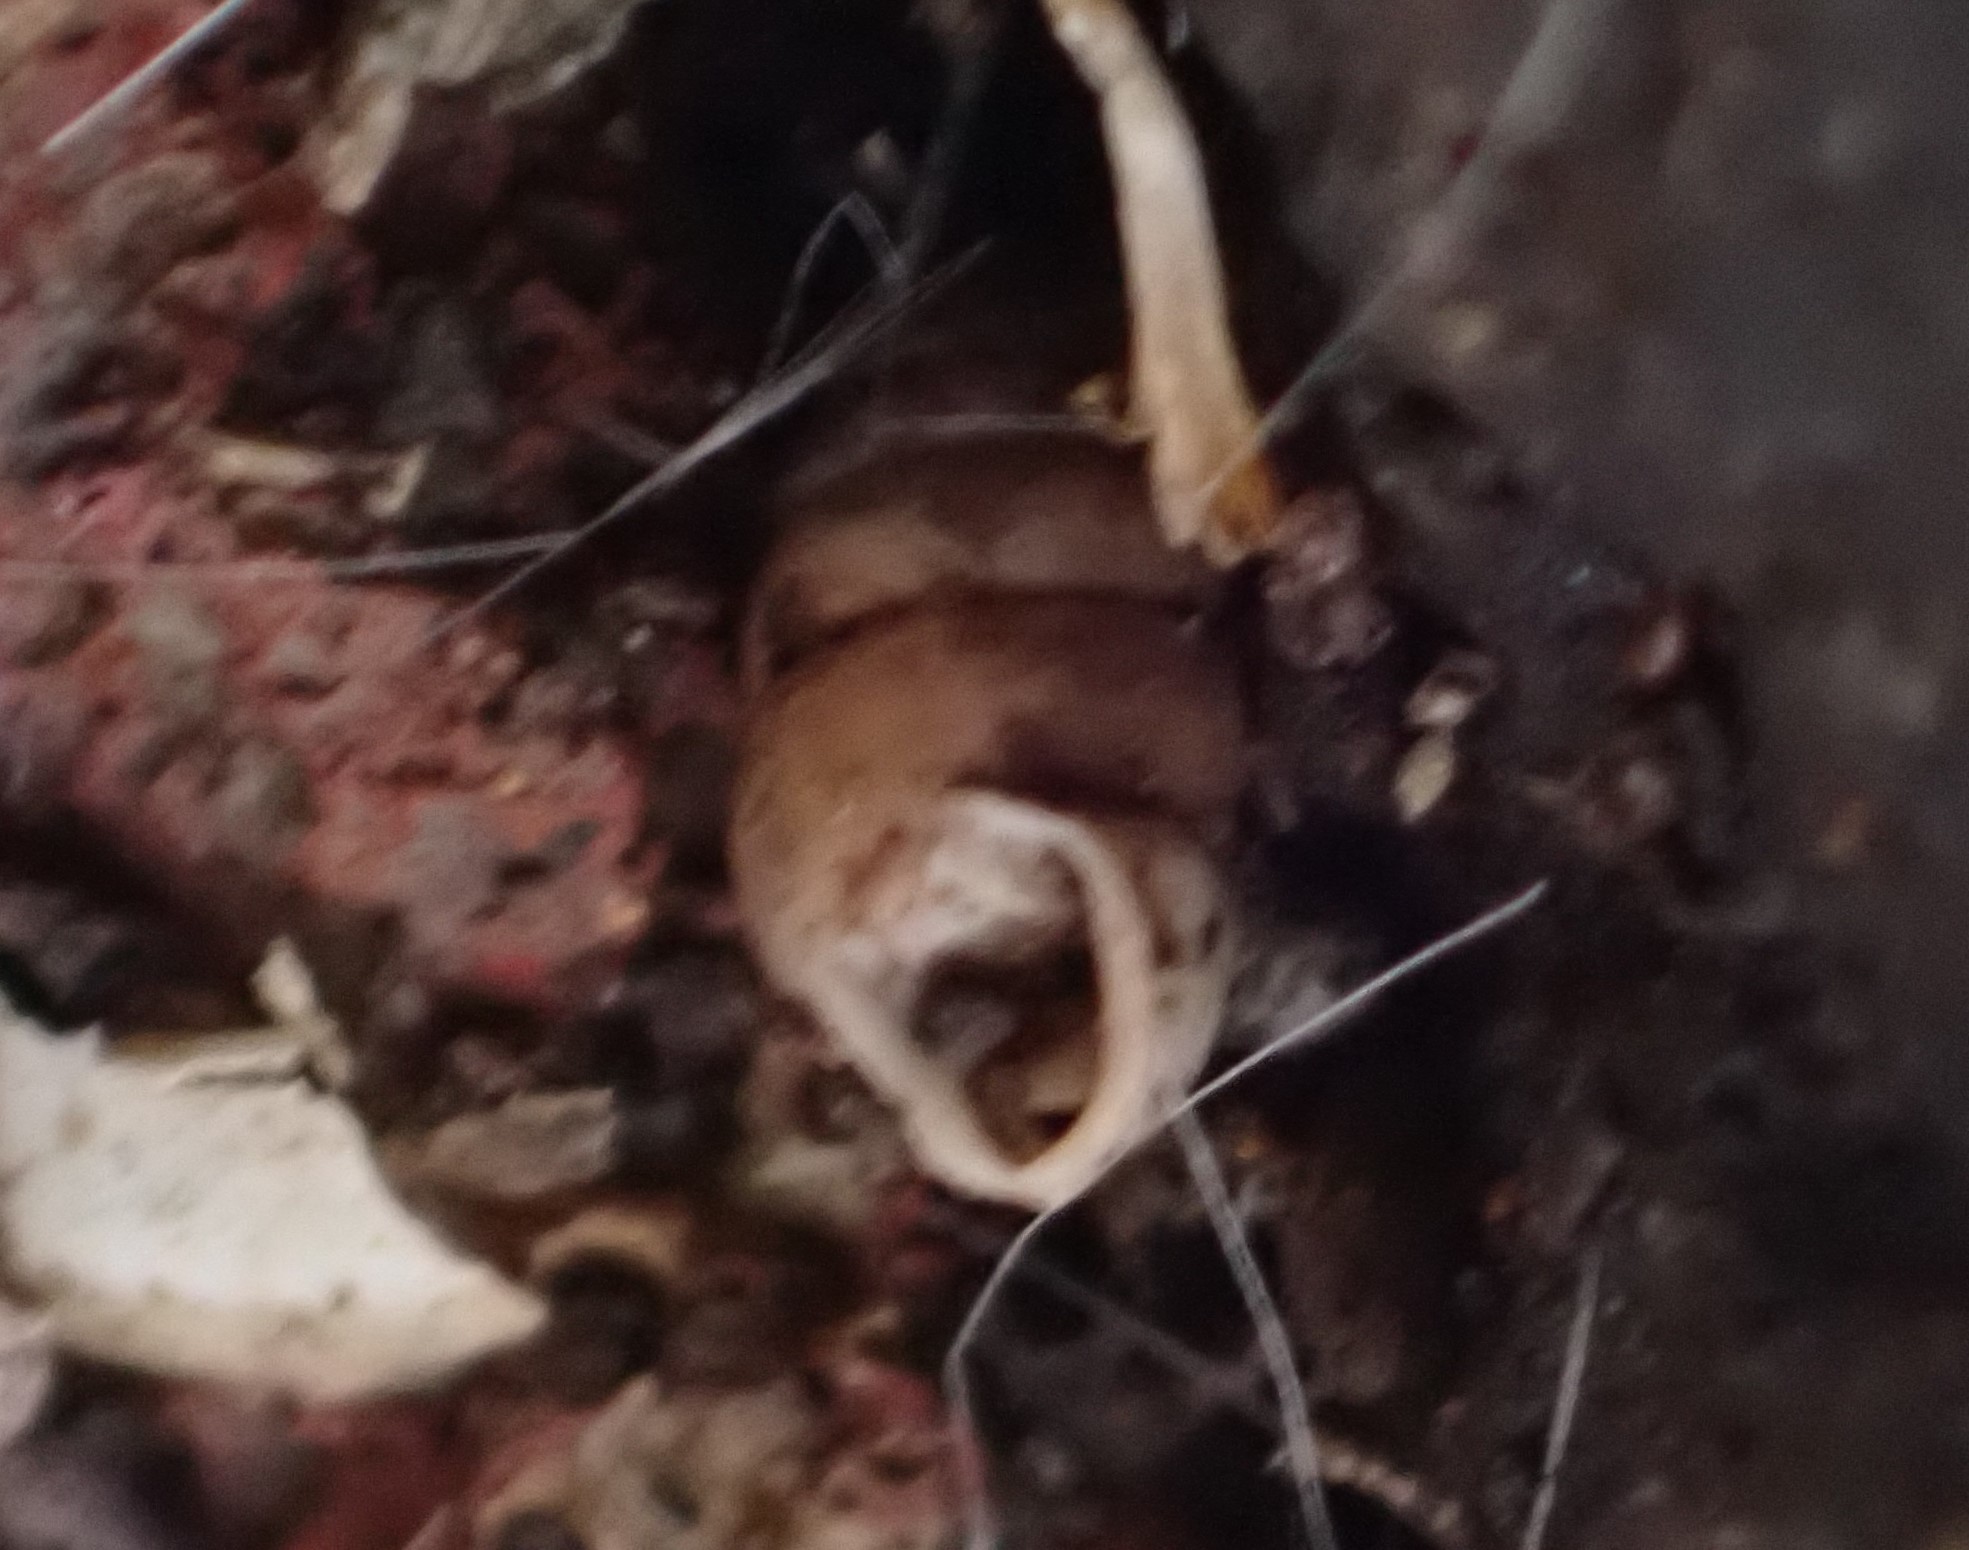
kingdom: Animalia
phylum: Mollusca
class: Gastropoda
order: Stylommatophora
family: Lauriidae
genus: Lauria
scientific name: Lauria cylindracea
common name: Common chrysalis snail
